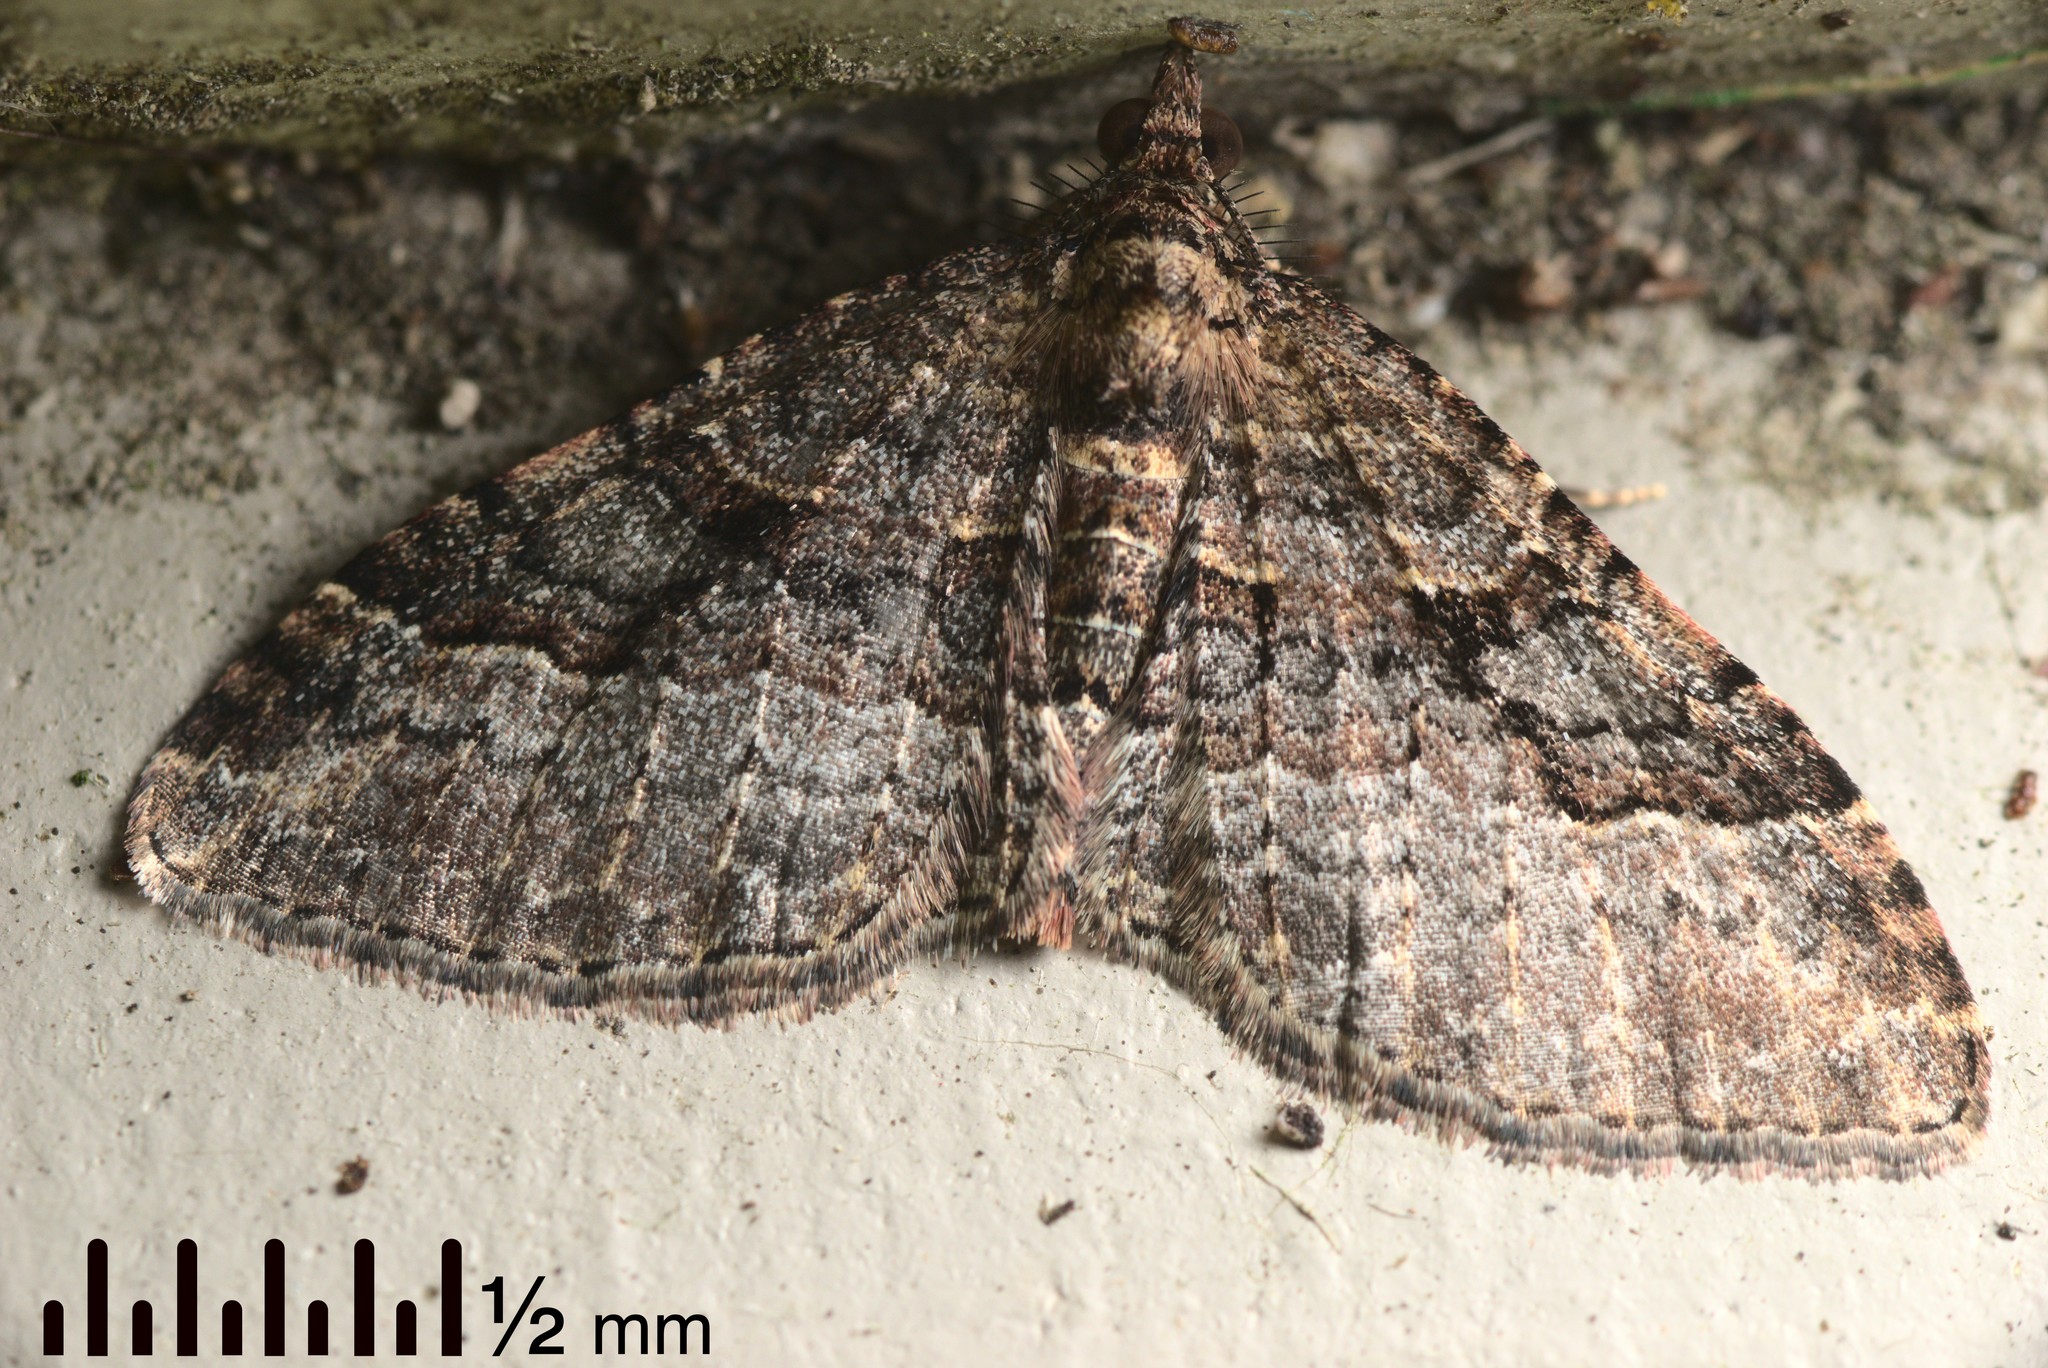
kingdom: Animalia
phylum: Arthropoda
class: Insecta
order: Lepidoptera
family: Geometridae
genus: Epyaxa
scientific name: Epyaxa lucidata
